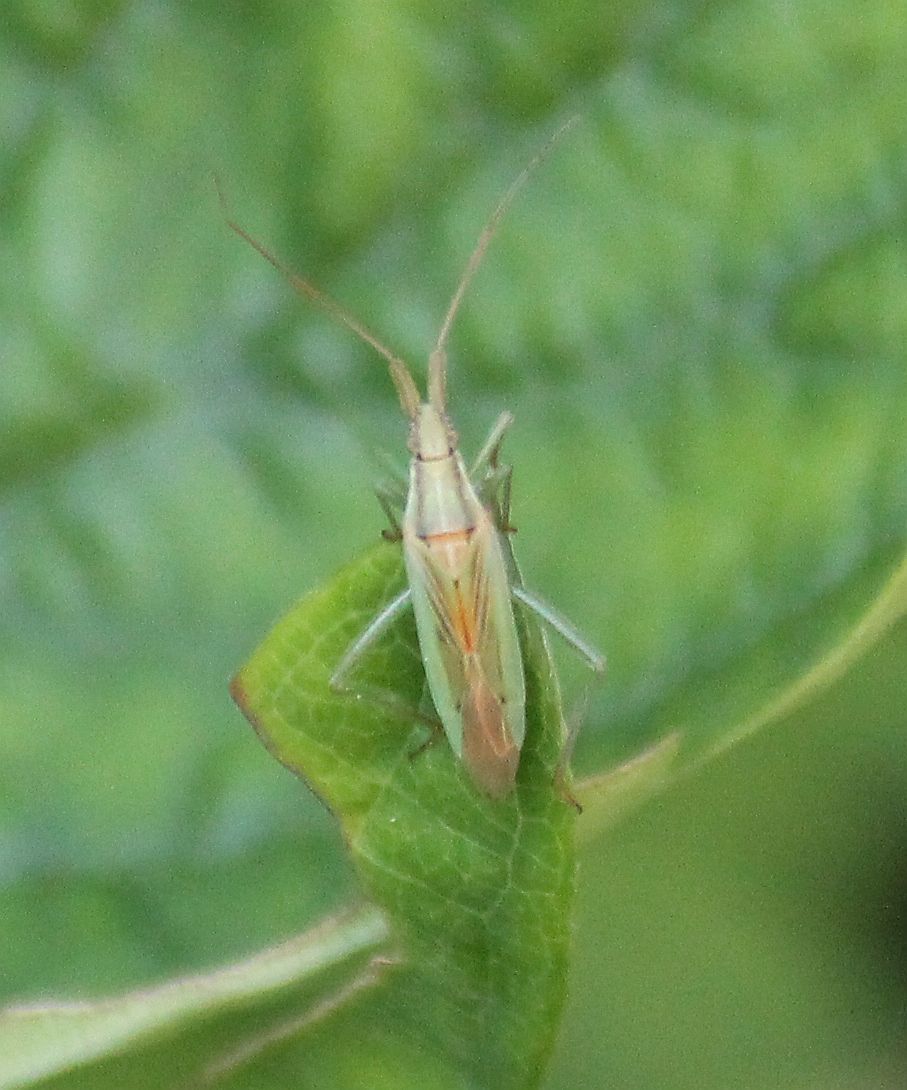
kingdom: Animalia
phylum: Arthropoda
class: Insecta
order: Hemiptera
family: Miridae
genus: Stenodema
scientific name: Stenodema laevigata
